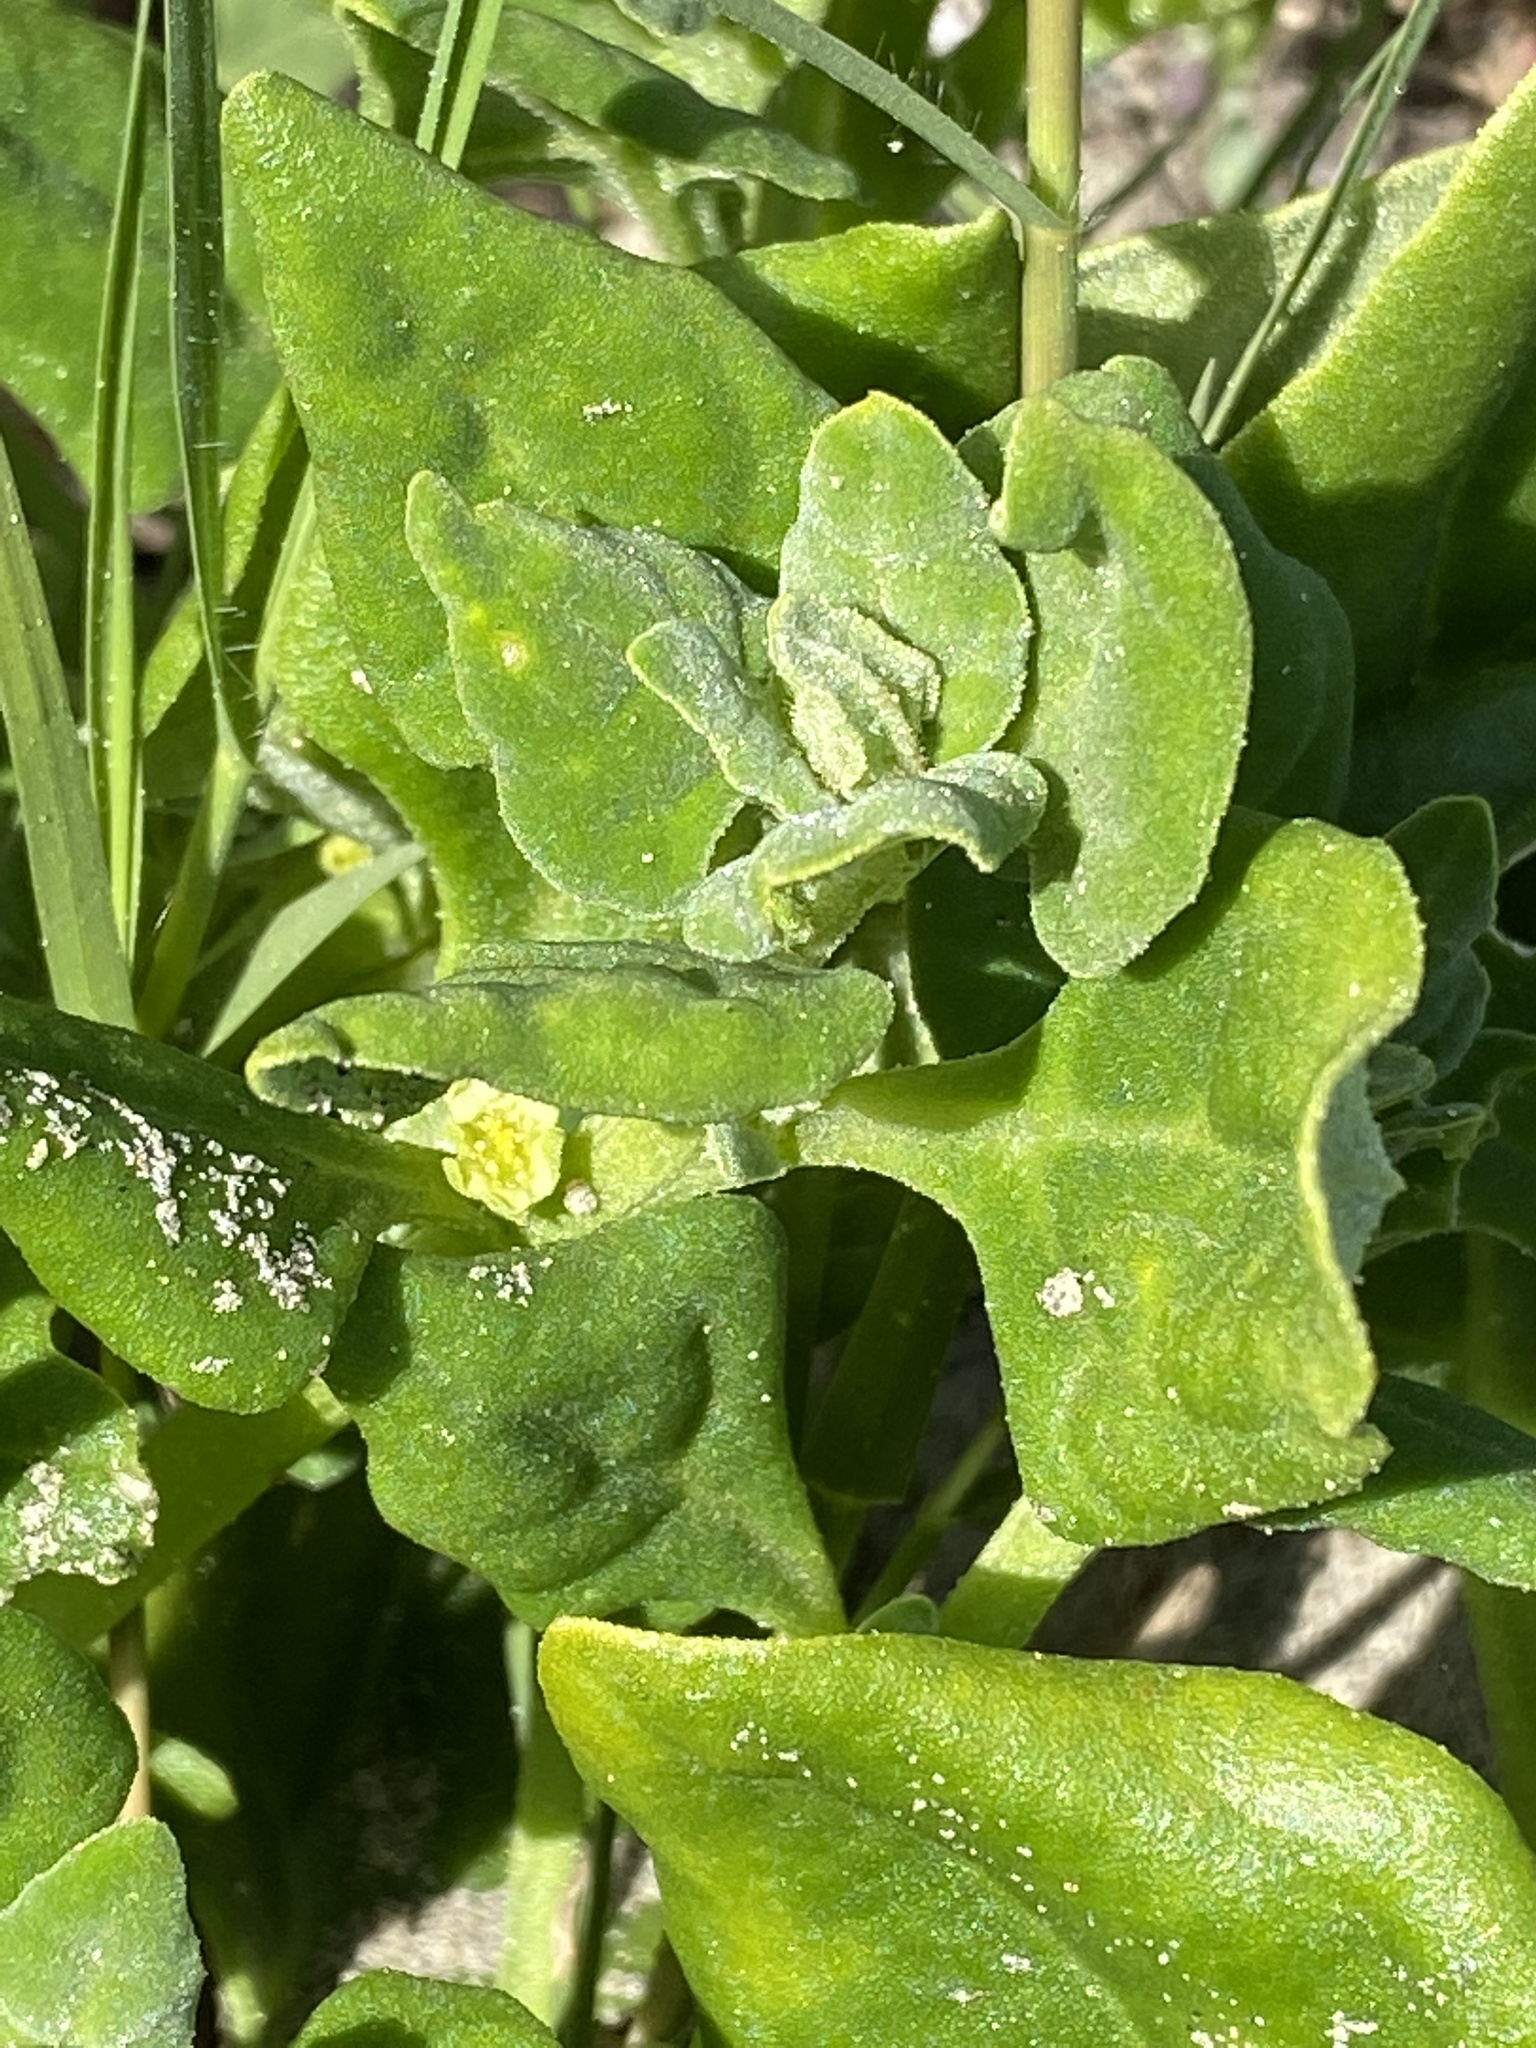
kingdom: Plantae
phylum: Tracheophyta
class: Magnoliopsida
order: Caryophyllales
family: Aizoaceae
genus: Tetragonia
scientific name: Tetragonia tetragonoides
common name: New zealand-spinach
